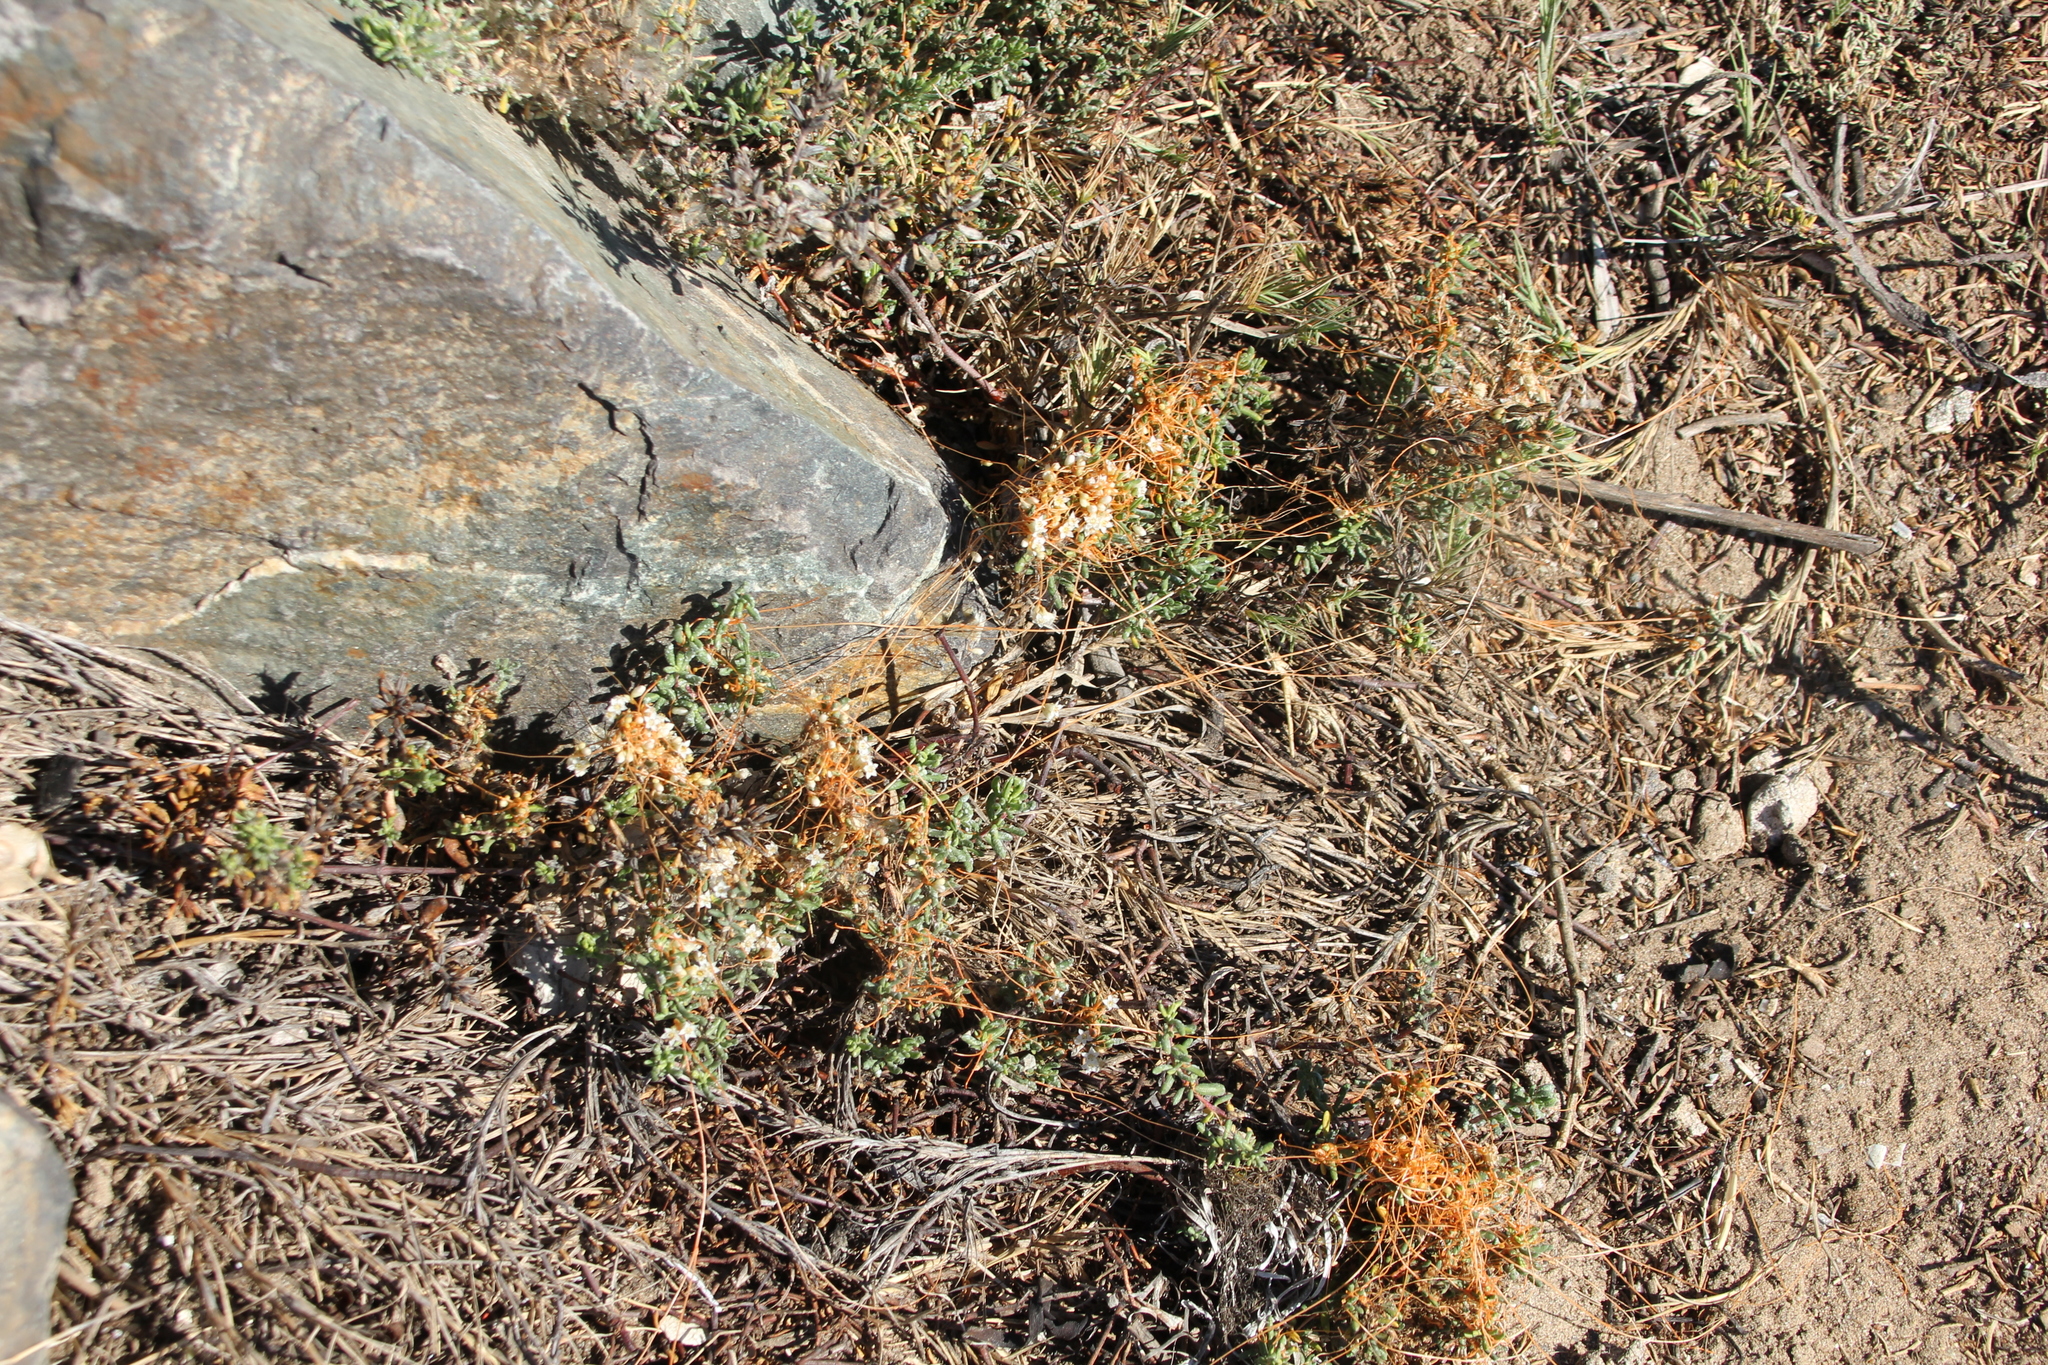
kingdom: Plantae
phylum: Tracheophyta
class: Magnoliopsida
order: Solanales
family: Convolvulaceae
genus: Cuscuta
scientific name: Cuscuta pacifica
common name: Large saltmarsh dodder
